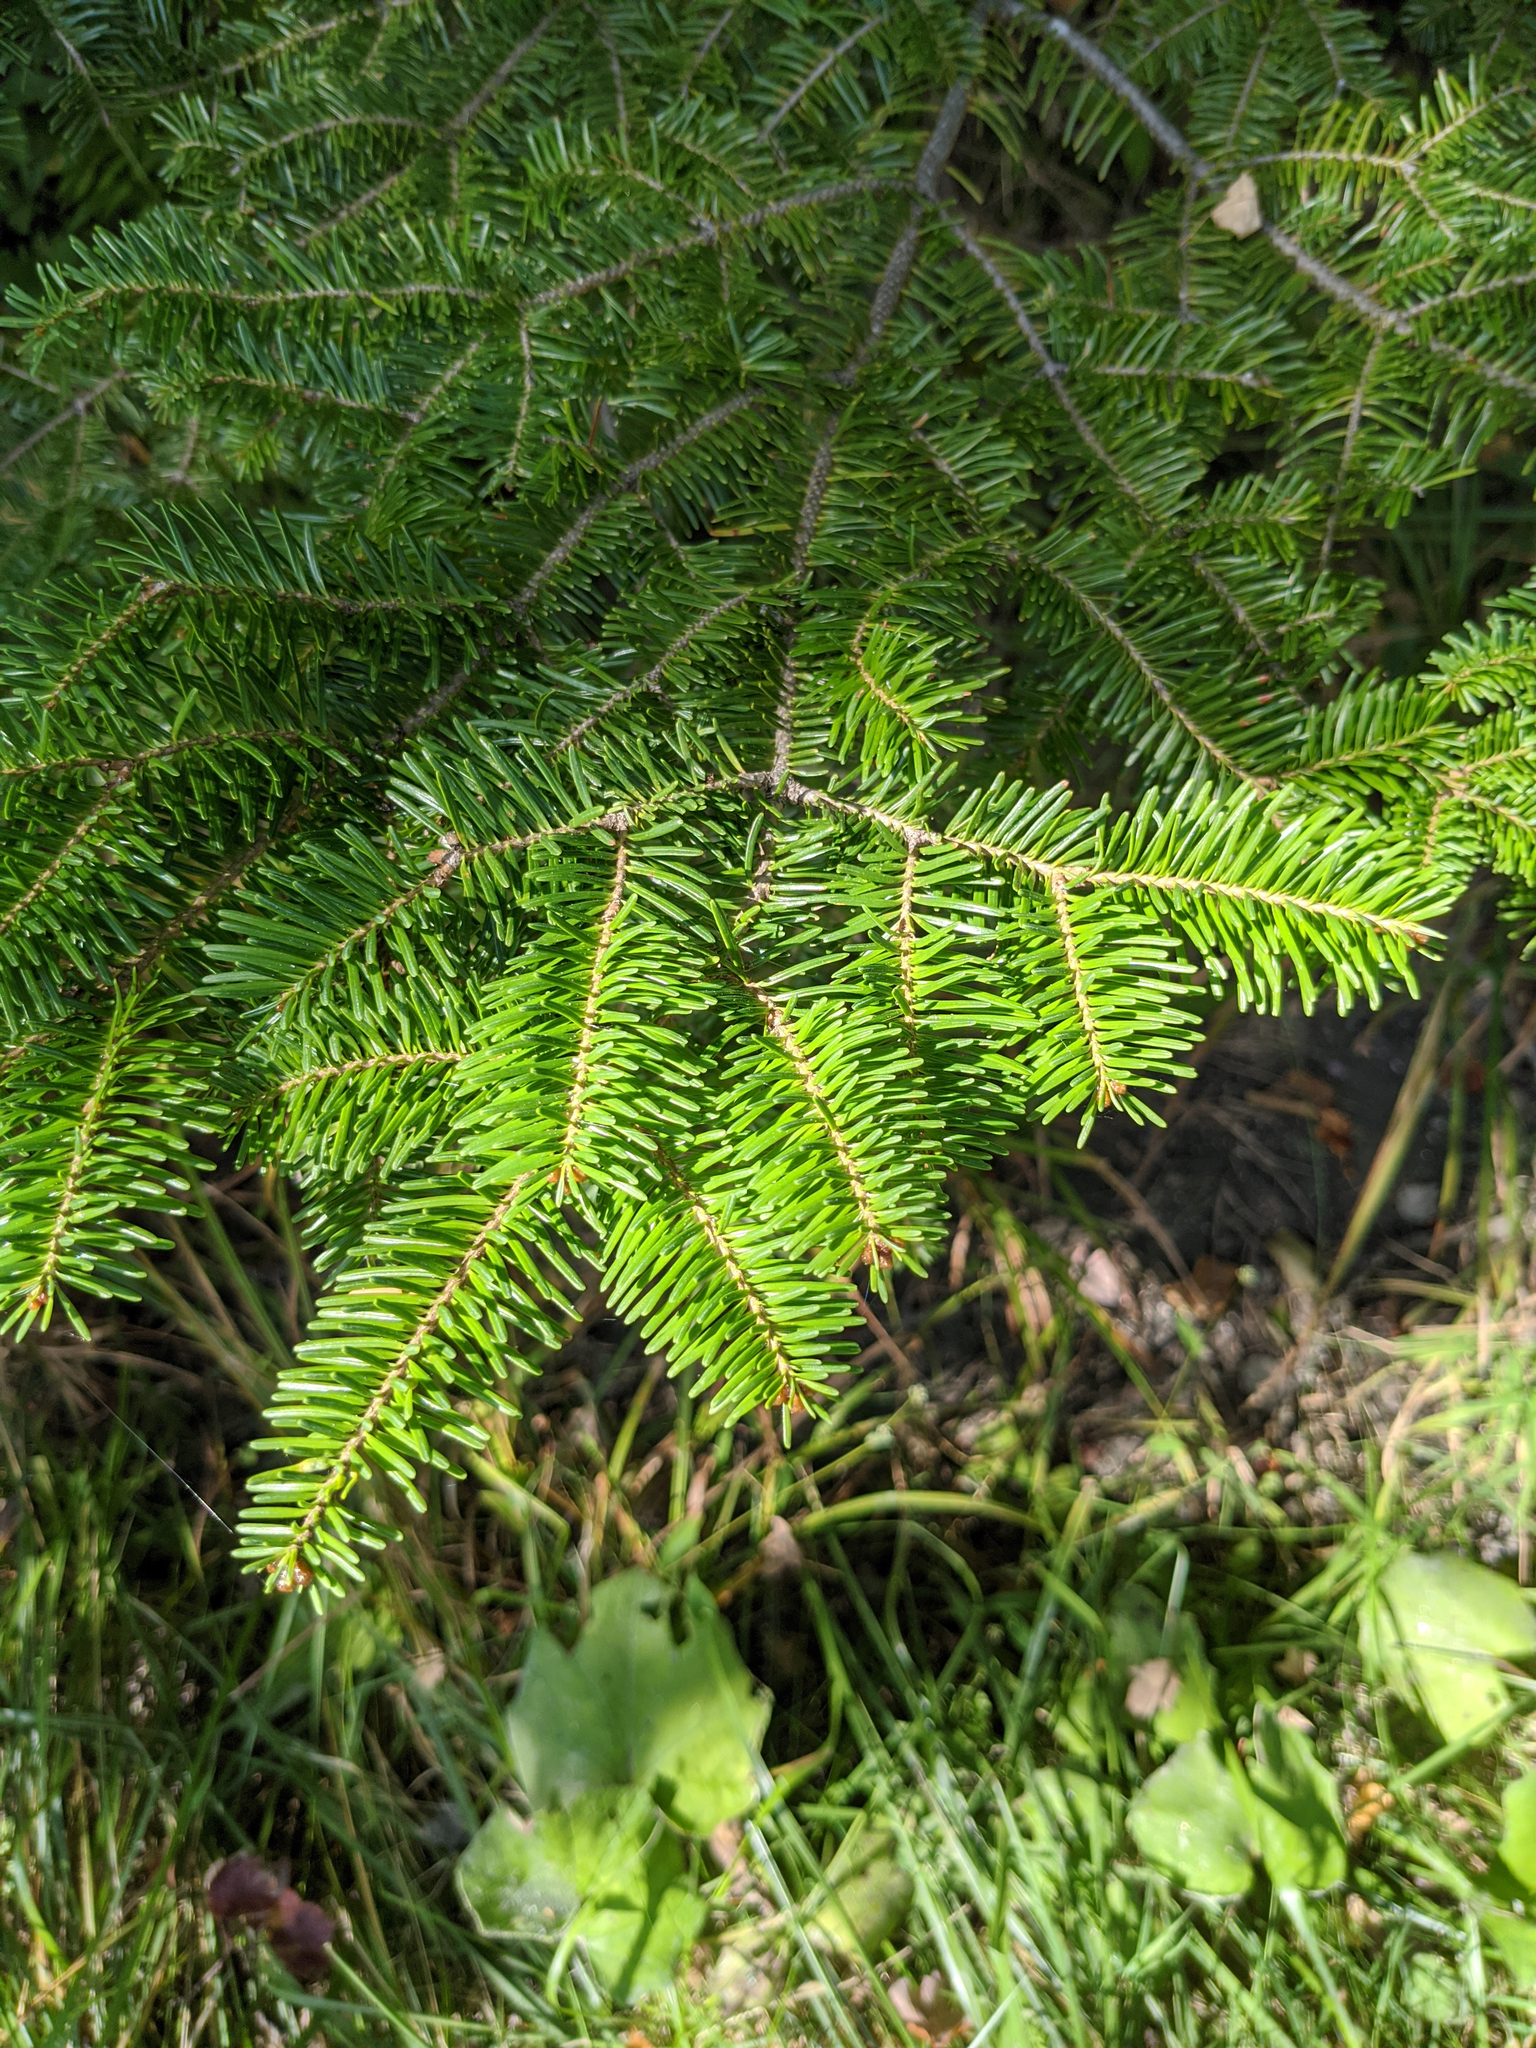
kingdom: Plantae
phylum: Tracheophyta
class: Pinopsida
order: Pinales
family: Pinaceae
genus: Abies
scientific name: Abies balsamea
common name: Balsam fir
